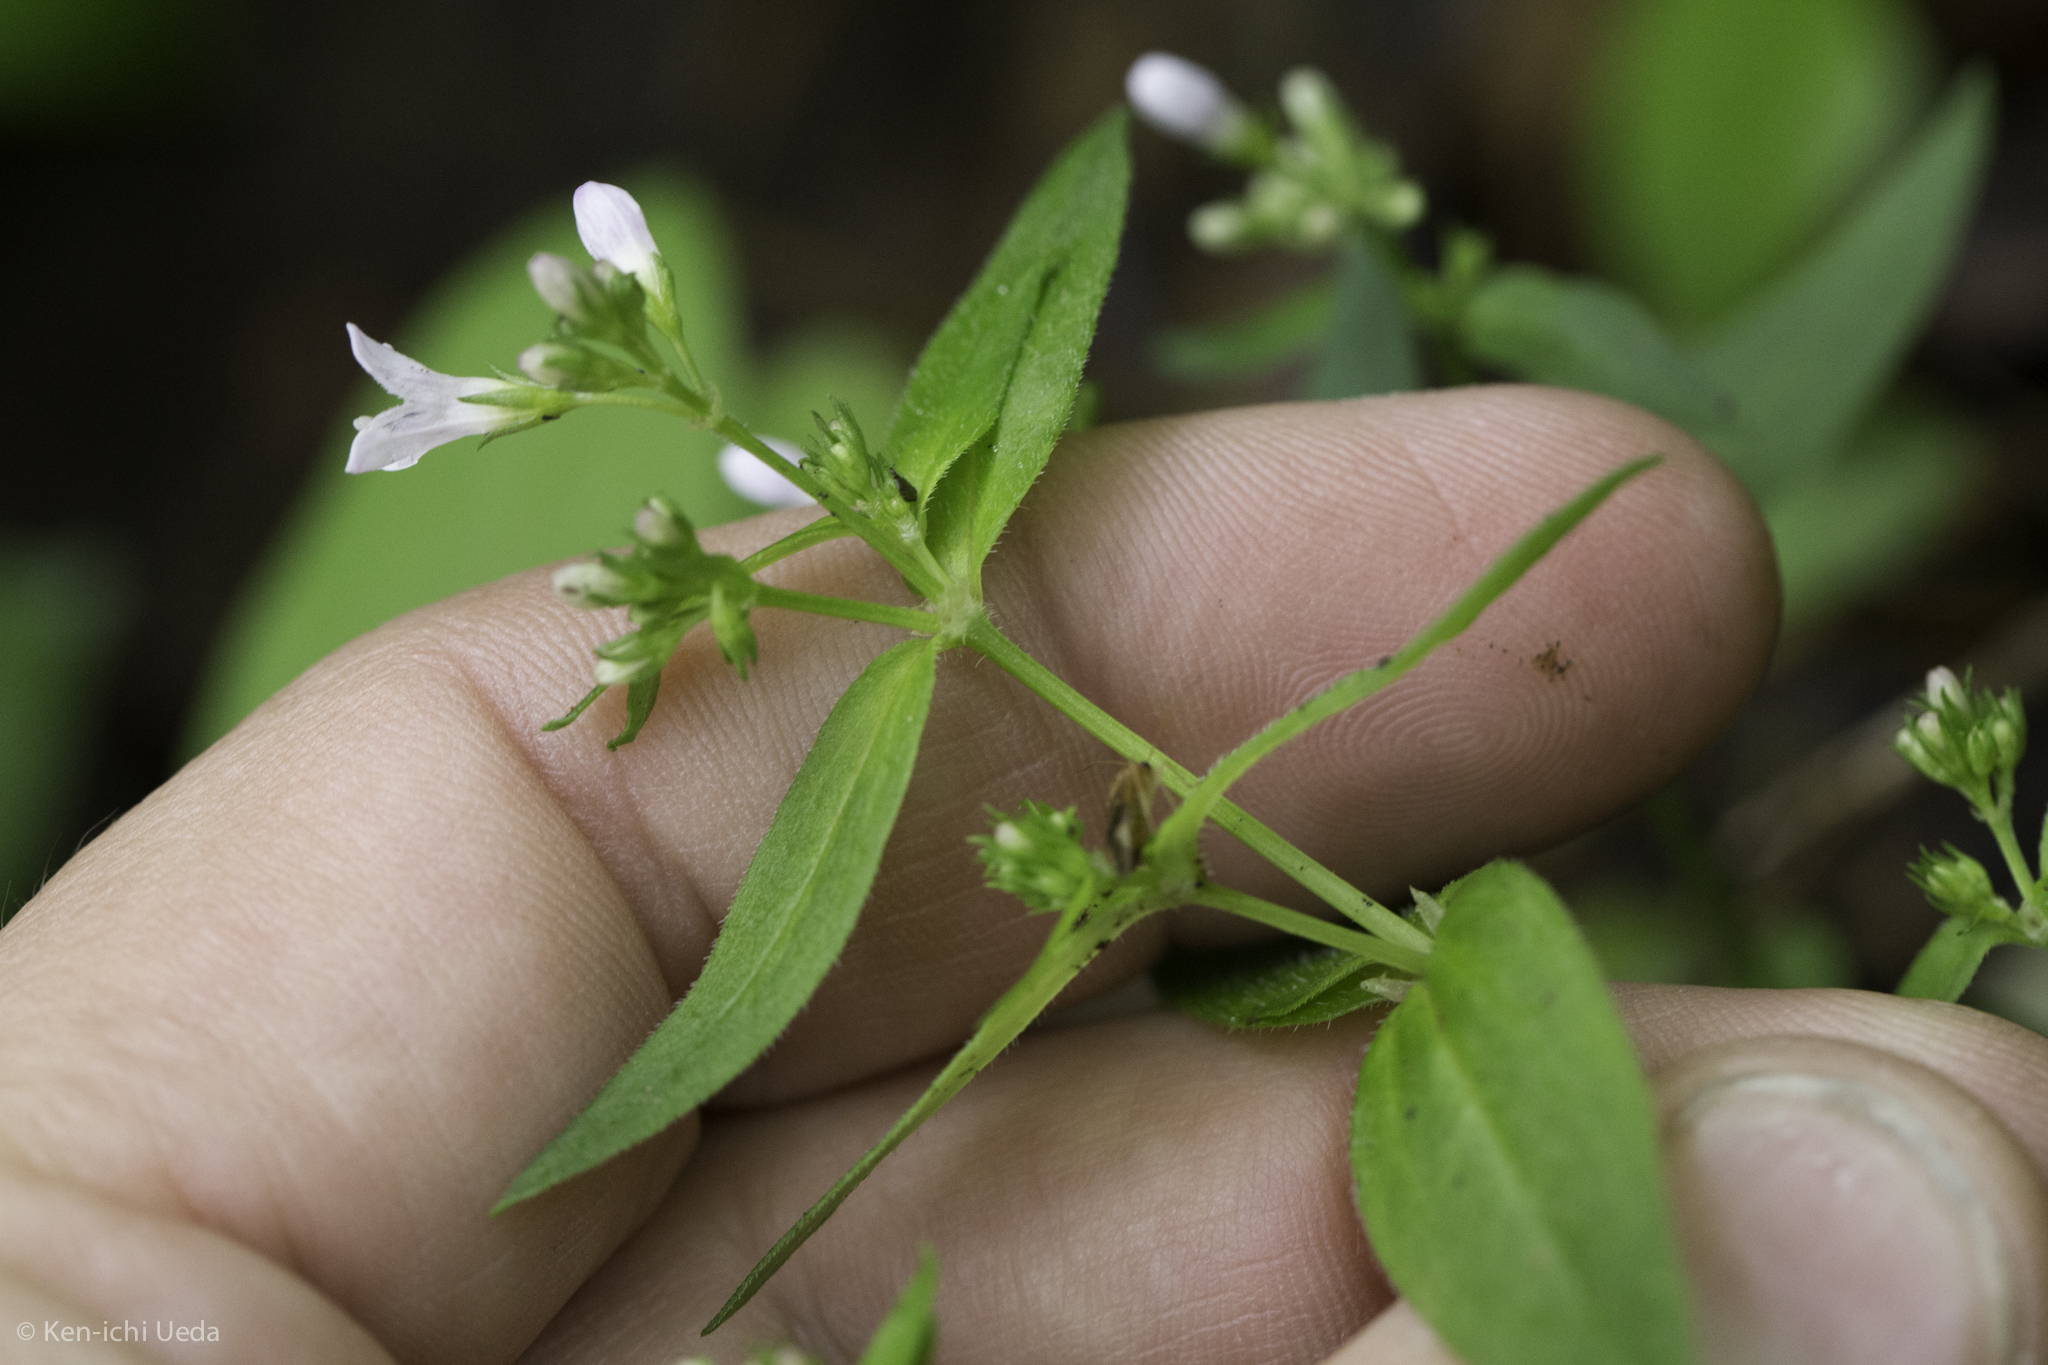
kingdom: Plantae
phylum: Tracheophyta
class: Magnoliopsida
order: Gentianales
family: Rubiaceae
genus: Houstonia
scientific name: Houstonia purpurea
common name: Summer bluet
